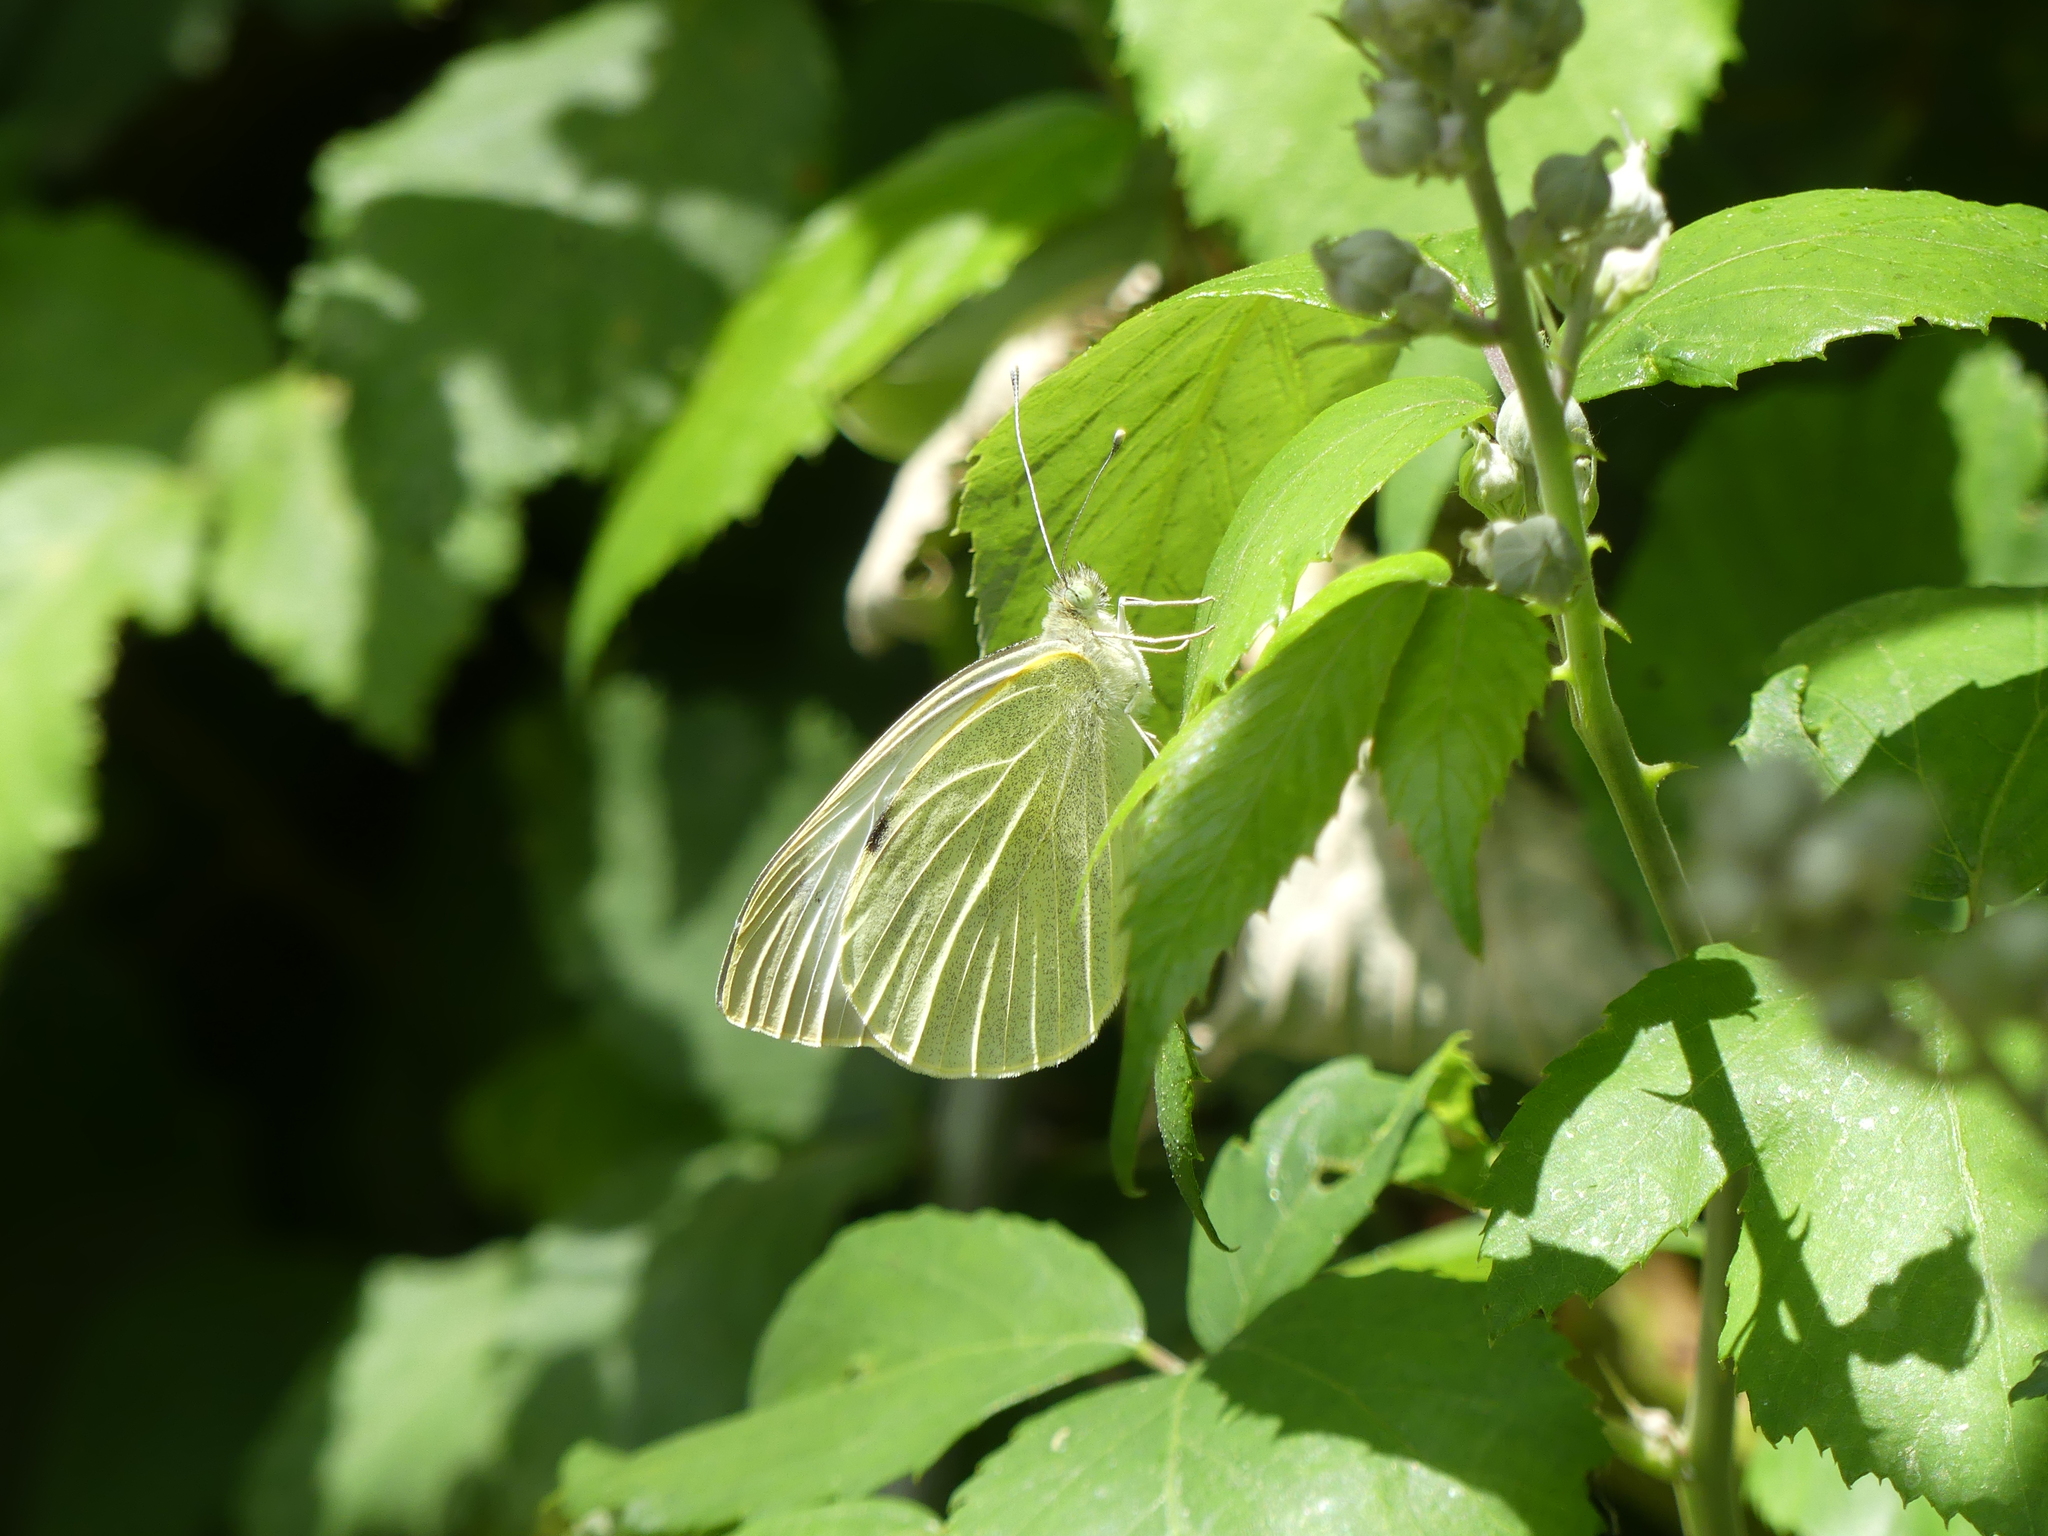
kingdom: Animalia
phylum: Arthropoda
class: Insecta
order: Lepidoptera
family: Pieridae
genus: Pieris
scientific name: Pieris brassicae
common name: Large white
